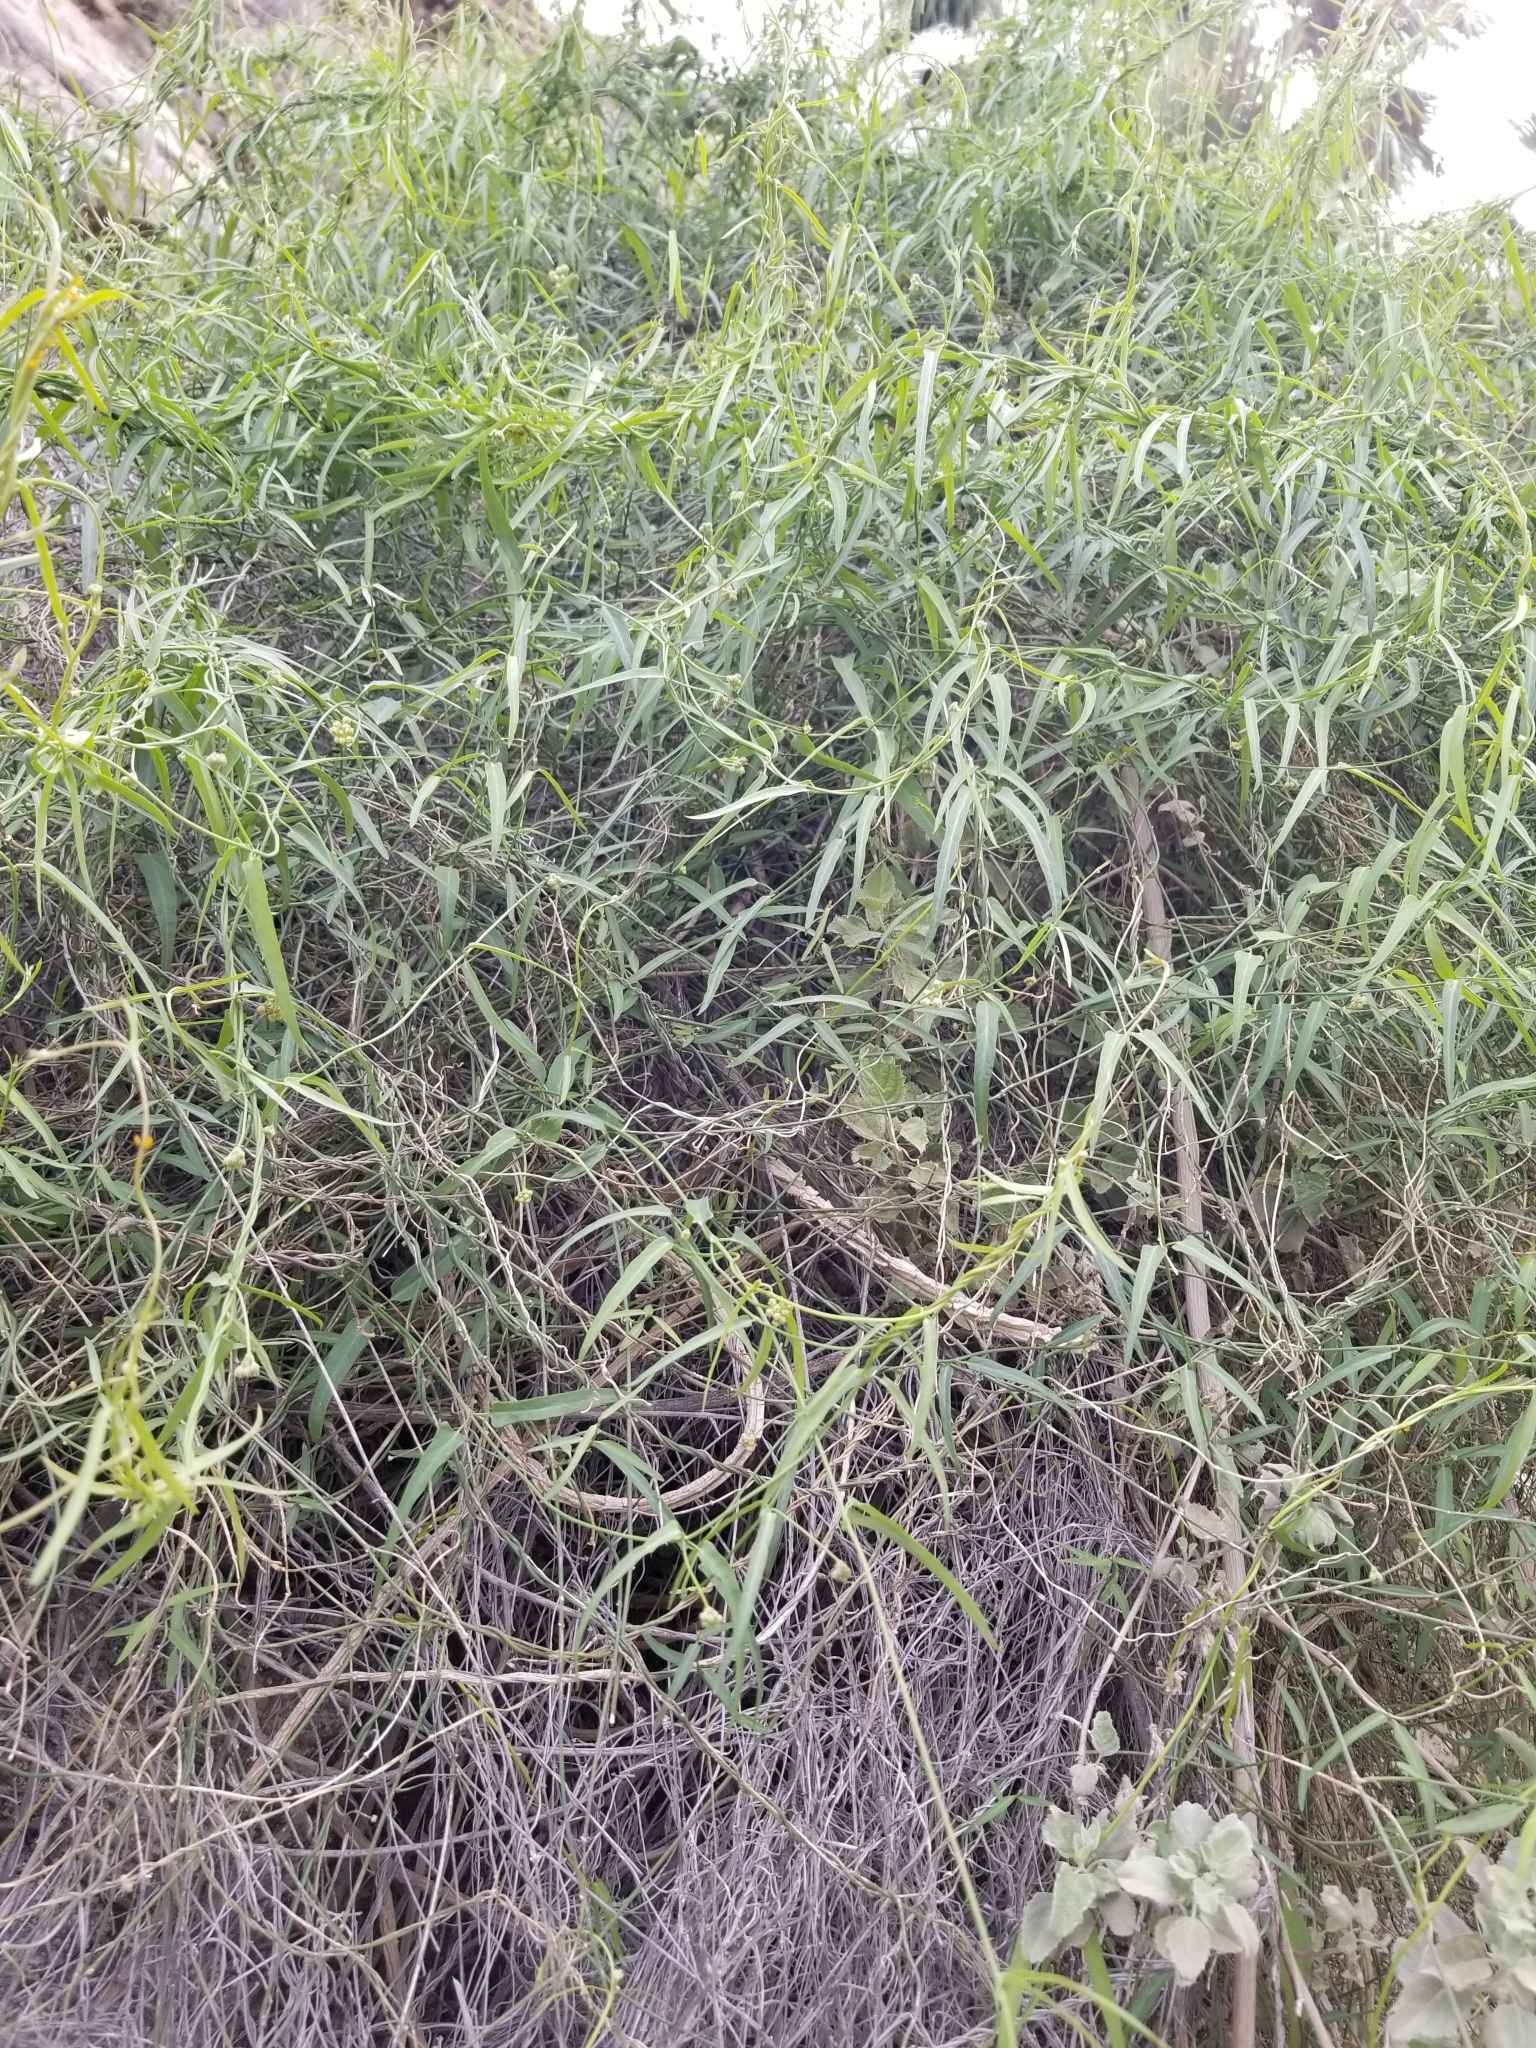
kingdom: Plantae
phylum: Tracheophyta
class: Magnoliopsida
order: Gentianales
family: Apocynaceae
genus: Funastrum
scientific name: Funastrum heterophyllum
